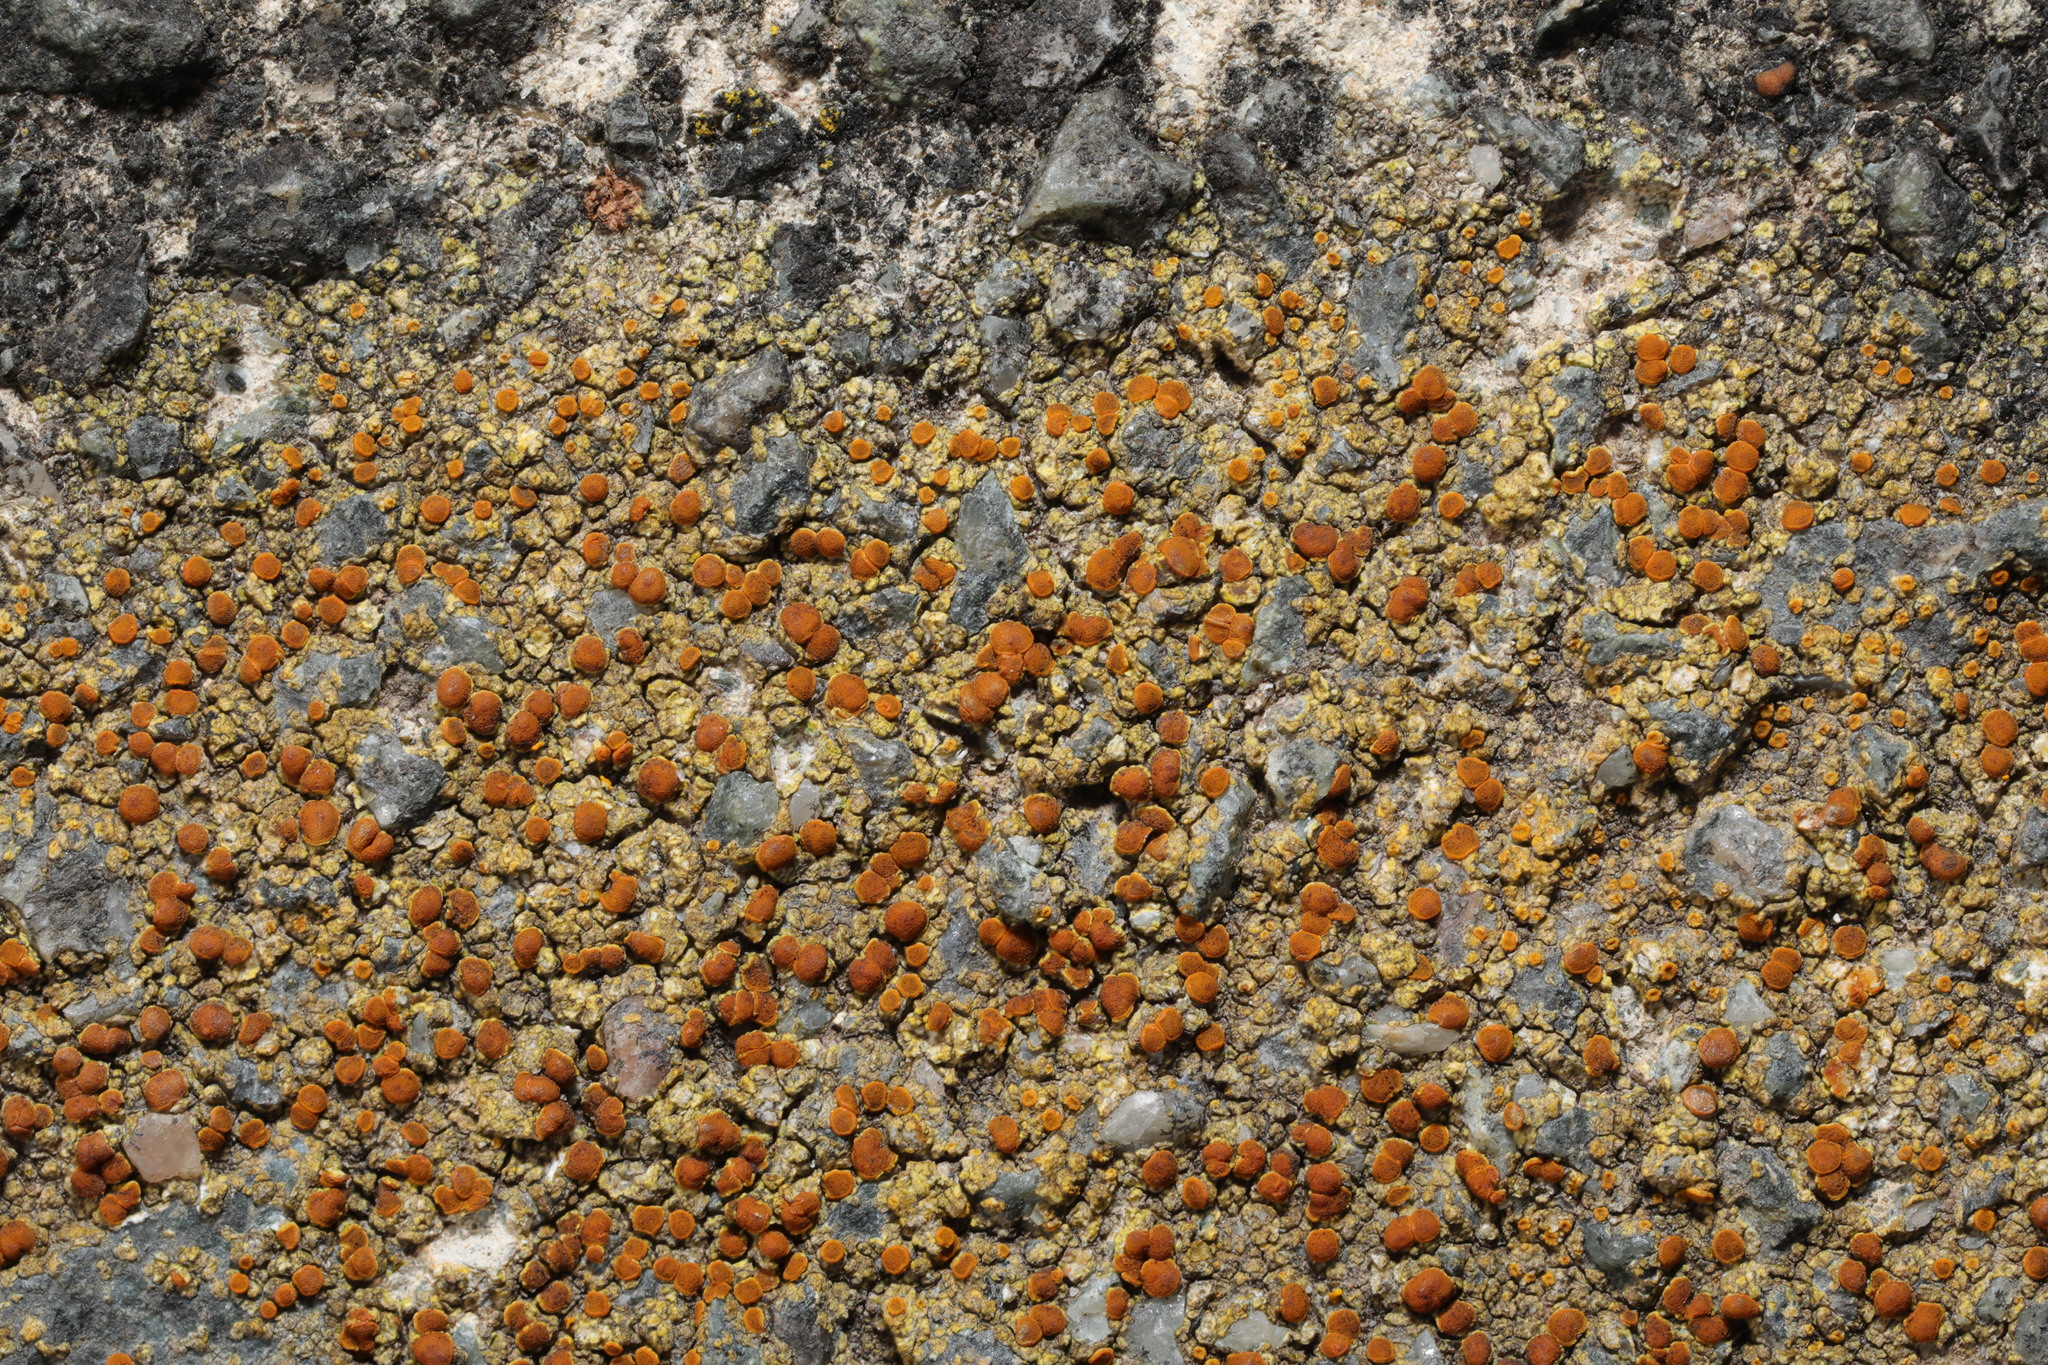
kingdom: Fungi
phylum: Ascomycota
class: Lecanoromycetes
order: Teloschistales
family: Teloschistaceae
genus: Gyalolechia
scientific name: Gyalolechia flavovirescens
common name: Sulphur firedot
